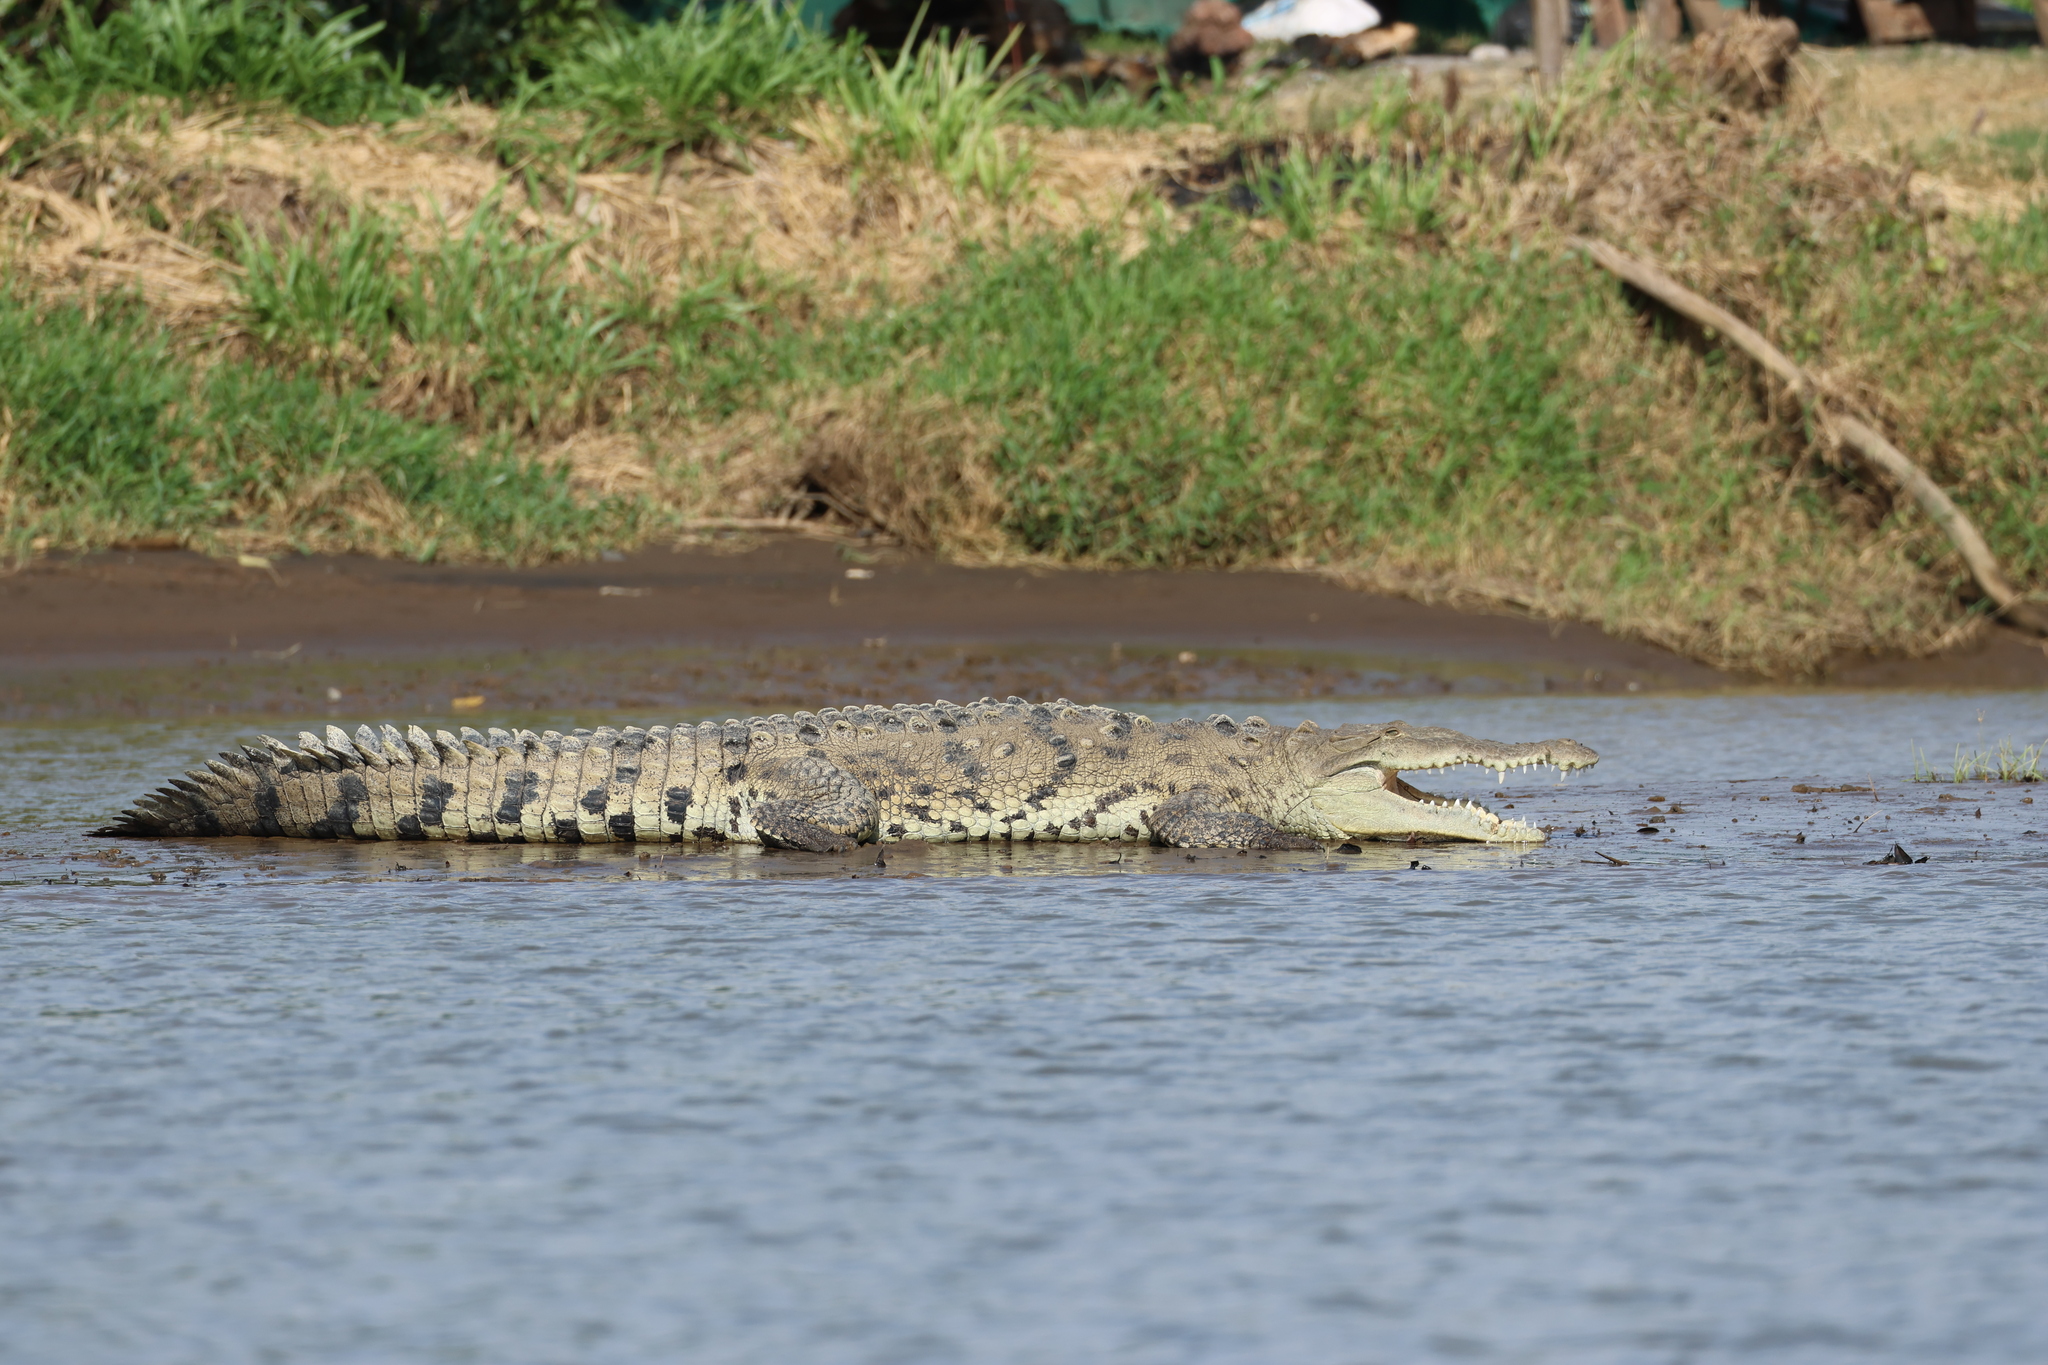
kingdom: Animalia
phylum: Chordata
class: Crocodylia
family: Crocodylidae
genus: Crocodylus
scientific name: Crocodylus acutus
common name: American crocodile
